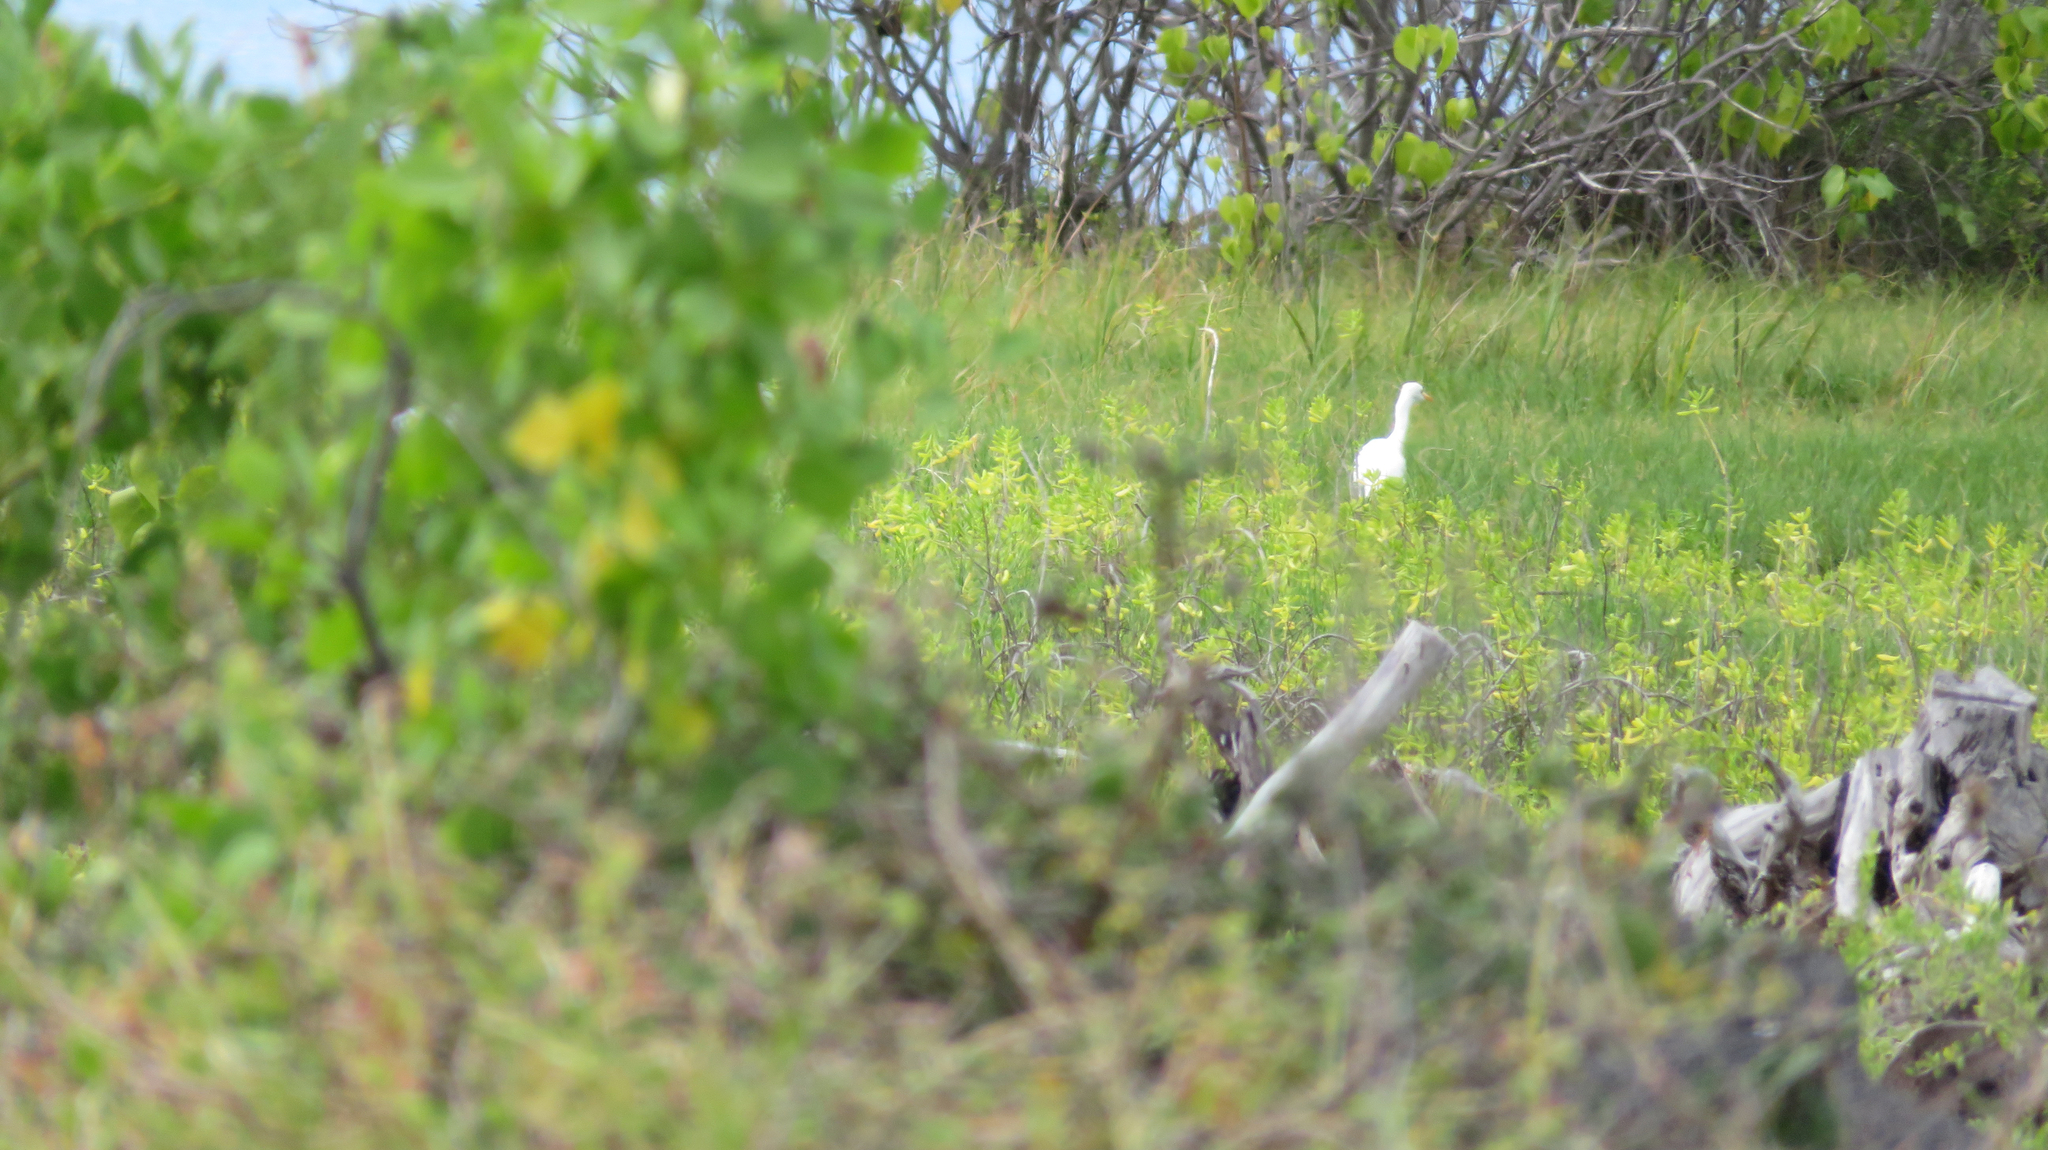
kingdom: Animalia
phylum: Chordata
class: Aves
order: Pelecaniformes
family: Ardeidae
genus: Bubulcus
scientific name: Bubulcus ibis
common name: Cattle egret
